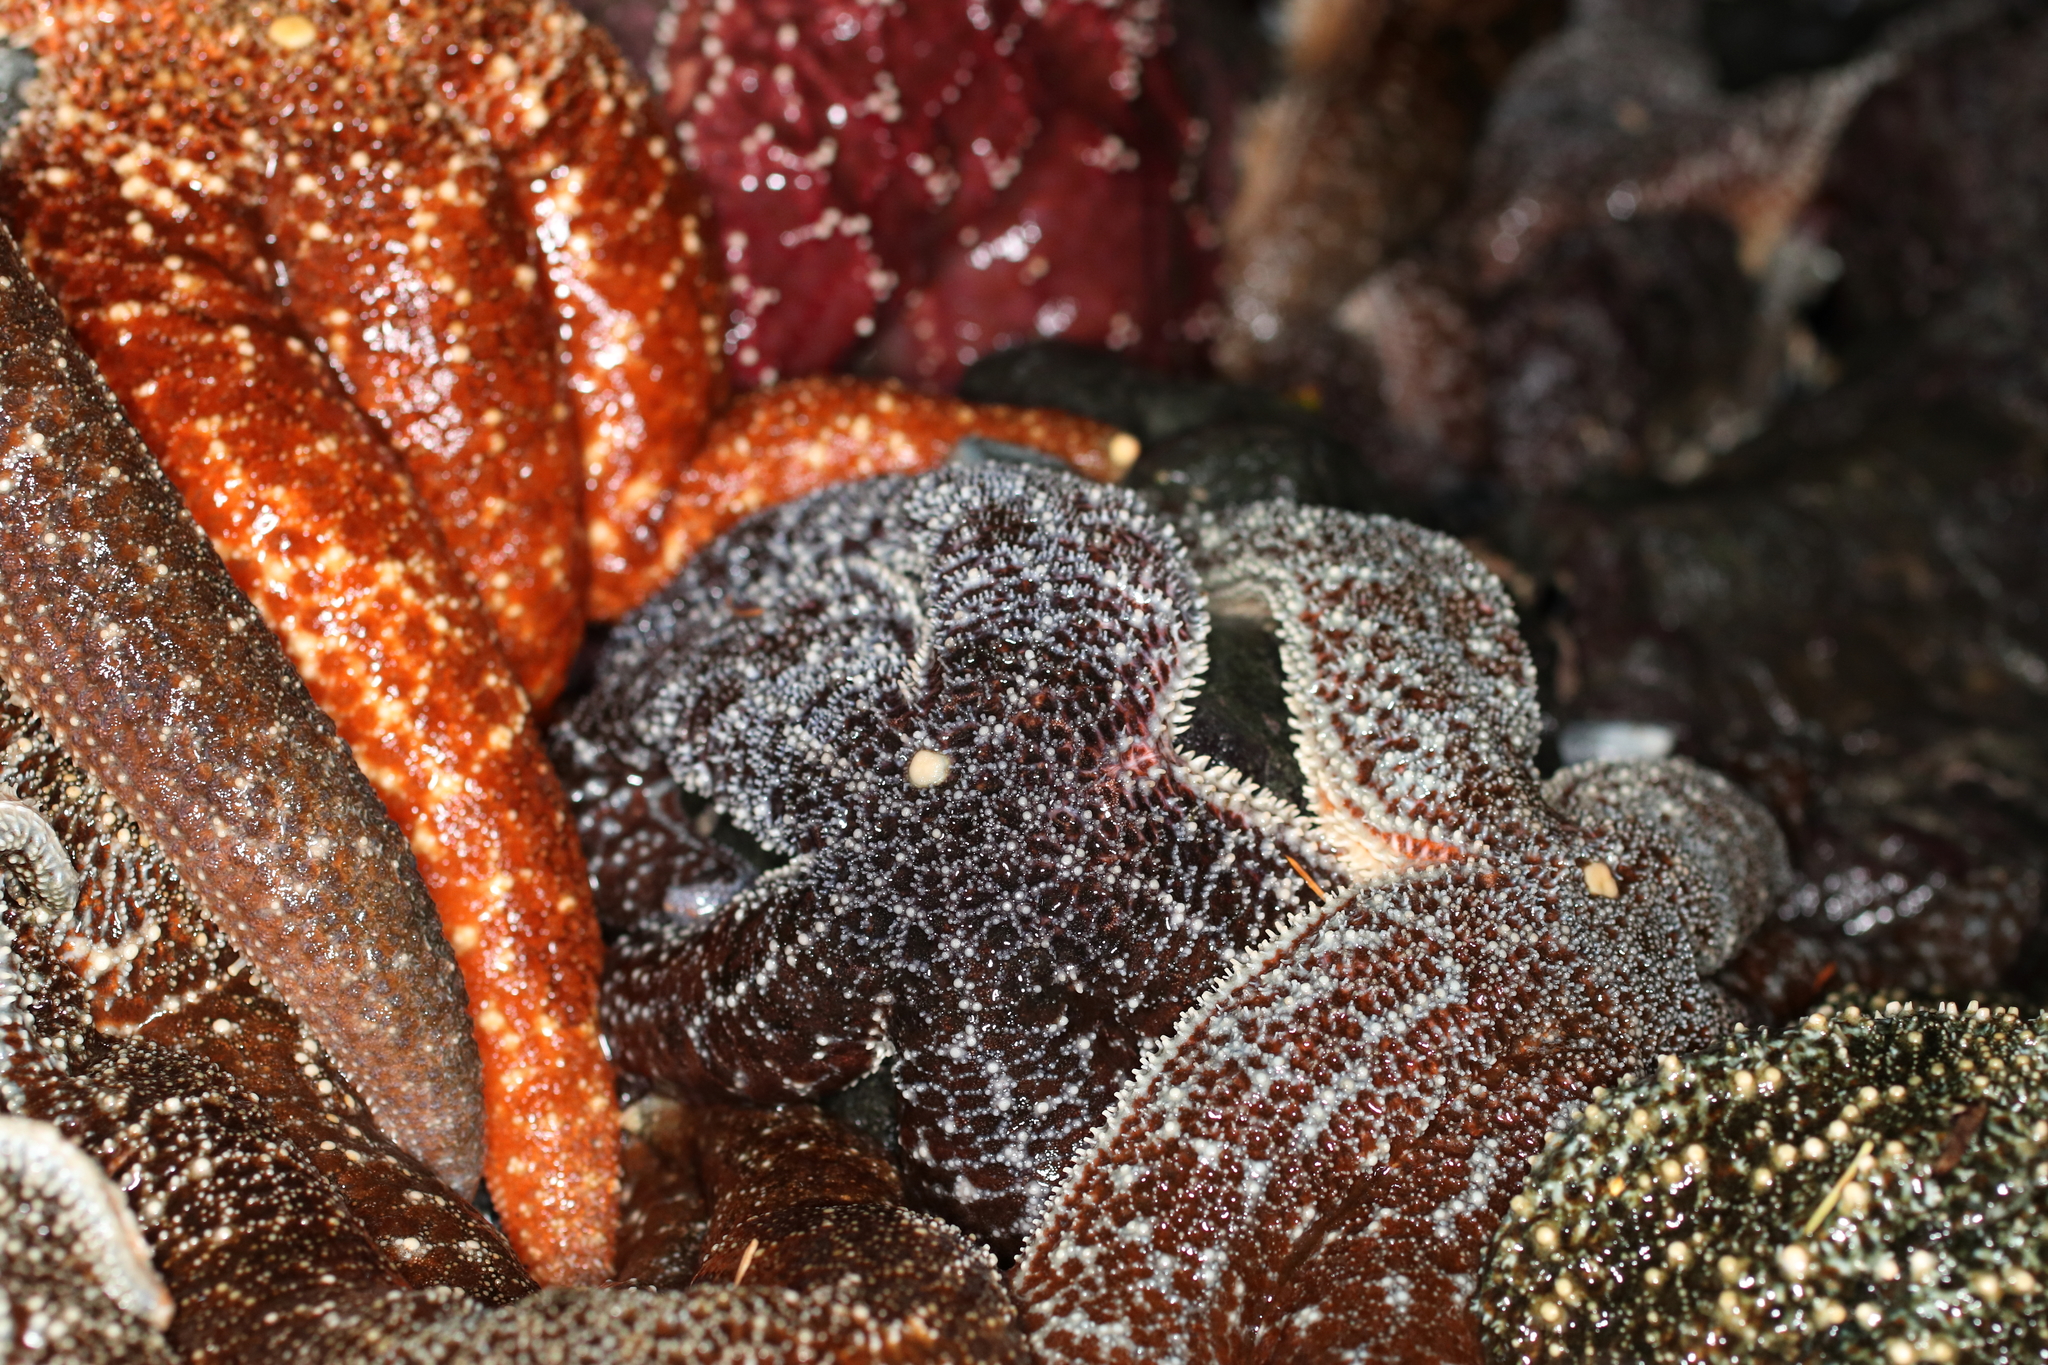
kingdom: Animalia
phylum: Echinodermata
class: Asteroidea
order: Forcipulatida
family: Asteriidae
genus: Evasterias
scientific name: Evasterias troschelii
